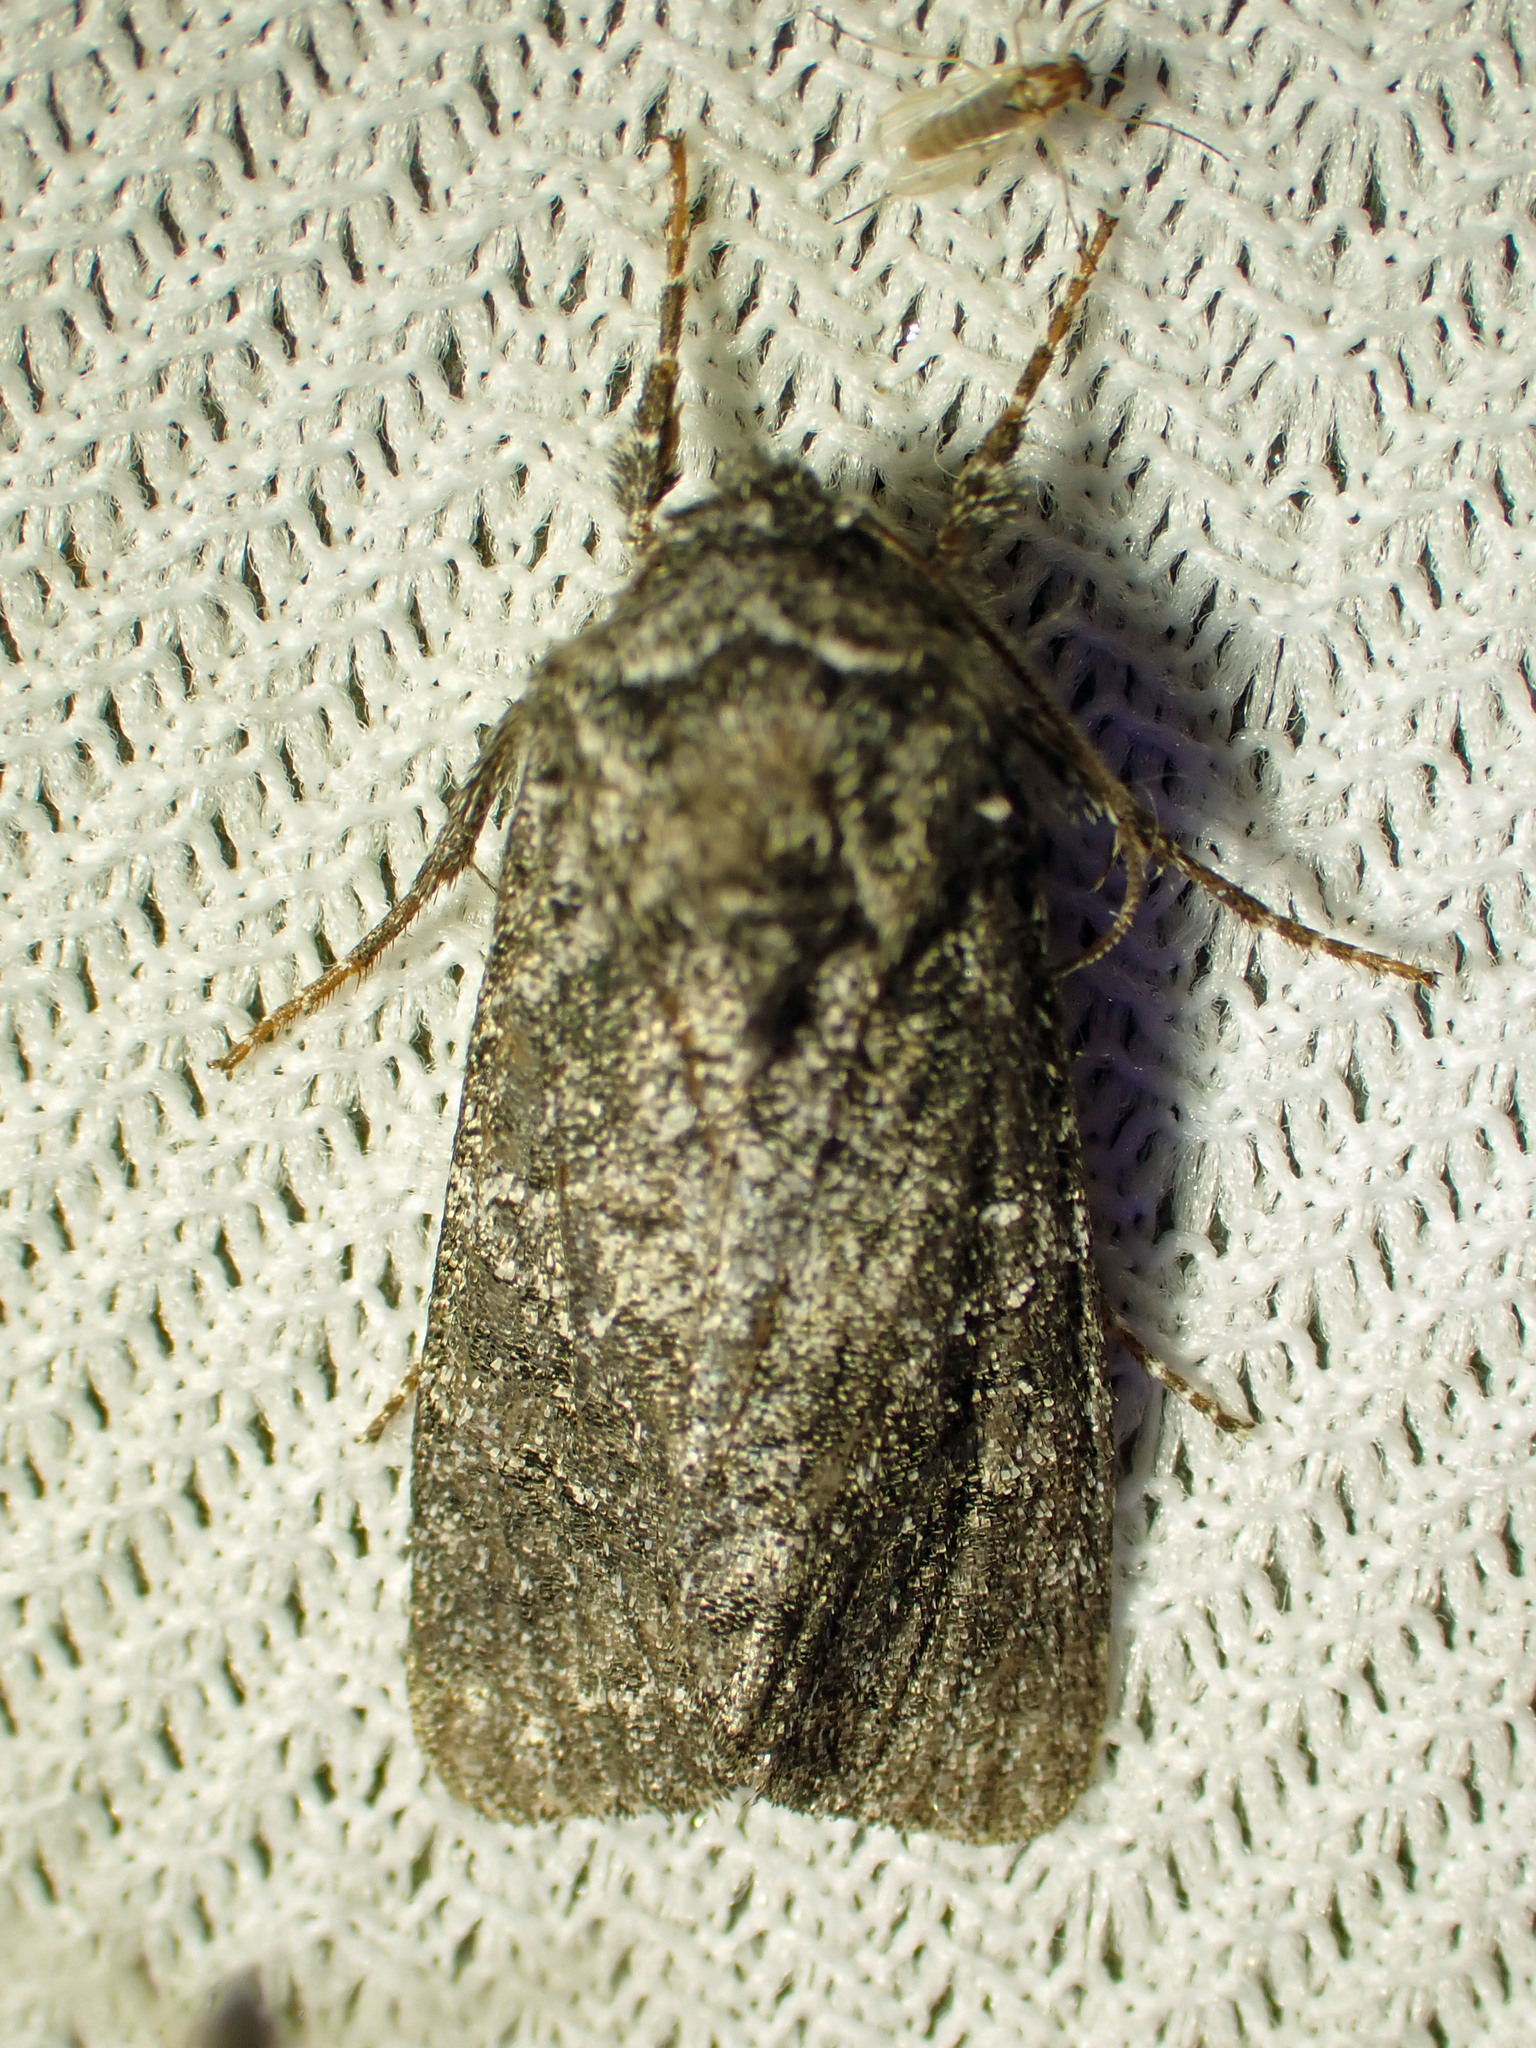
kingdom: Animalia
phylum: Arthropoda
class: Insecta
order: Lepidoptera
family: Noctuidae
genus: Egira
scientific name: Egira dolosa
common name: Lined black aspen cat.
